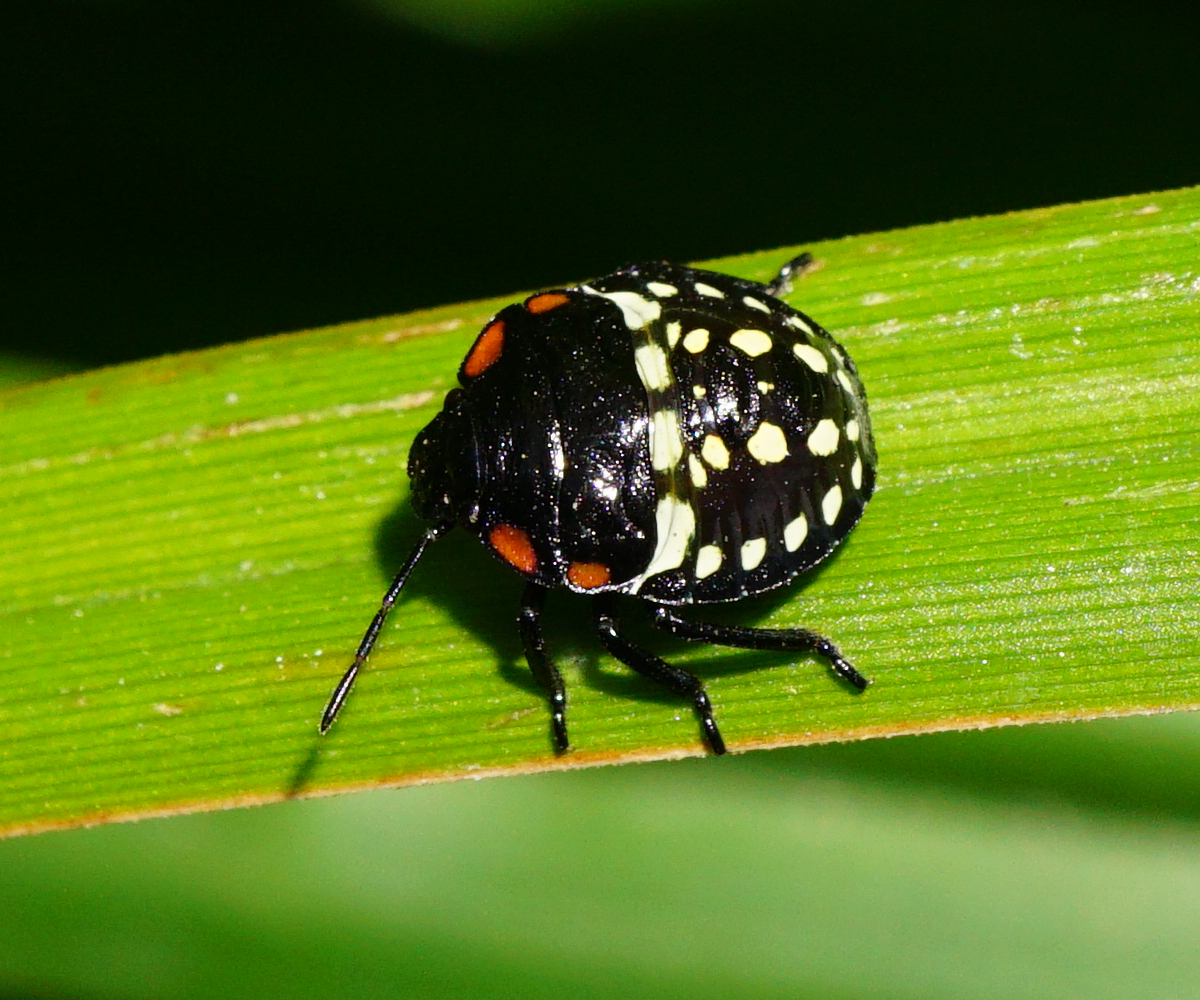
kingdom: Animalia
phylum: Arthropoda
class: Insecta
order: Hemiptera
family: Pentatomidae
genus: Nezara
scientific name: Nezara viridula
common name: Southern green stink bug
